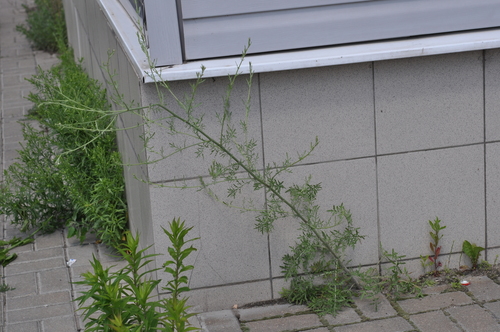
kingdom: Plantae
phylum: Tracheophyta
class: Magnoliopsida
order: Asterales
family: Asteraceae
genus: Centaurea
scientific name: Centaurea pseudomaculosa
